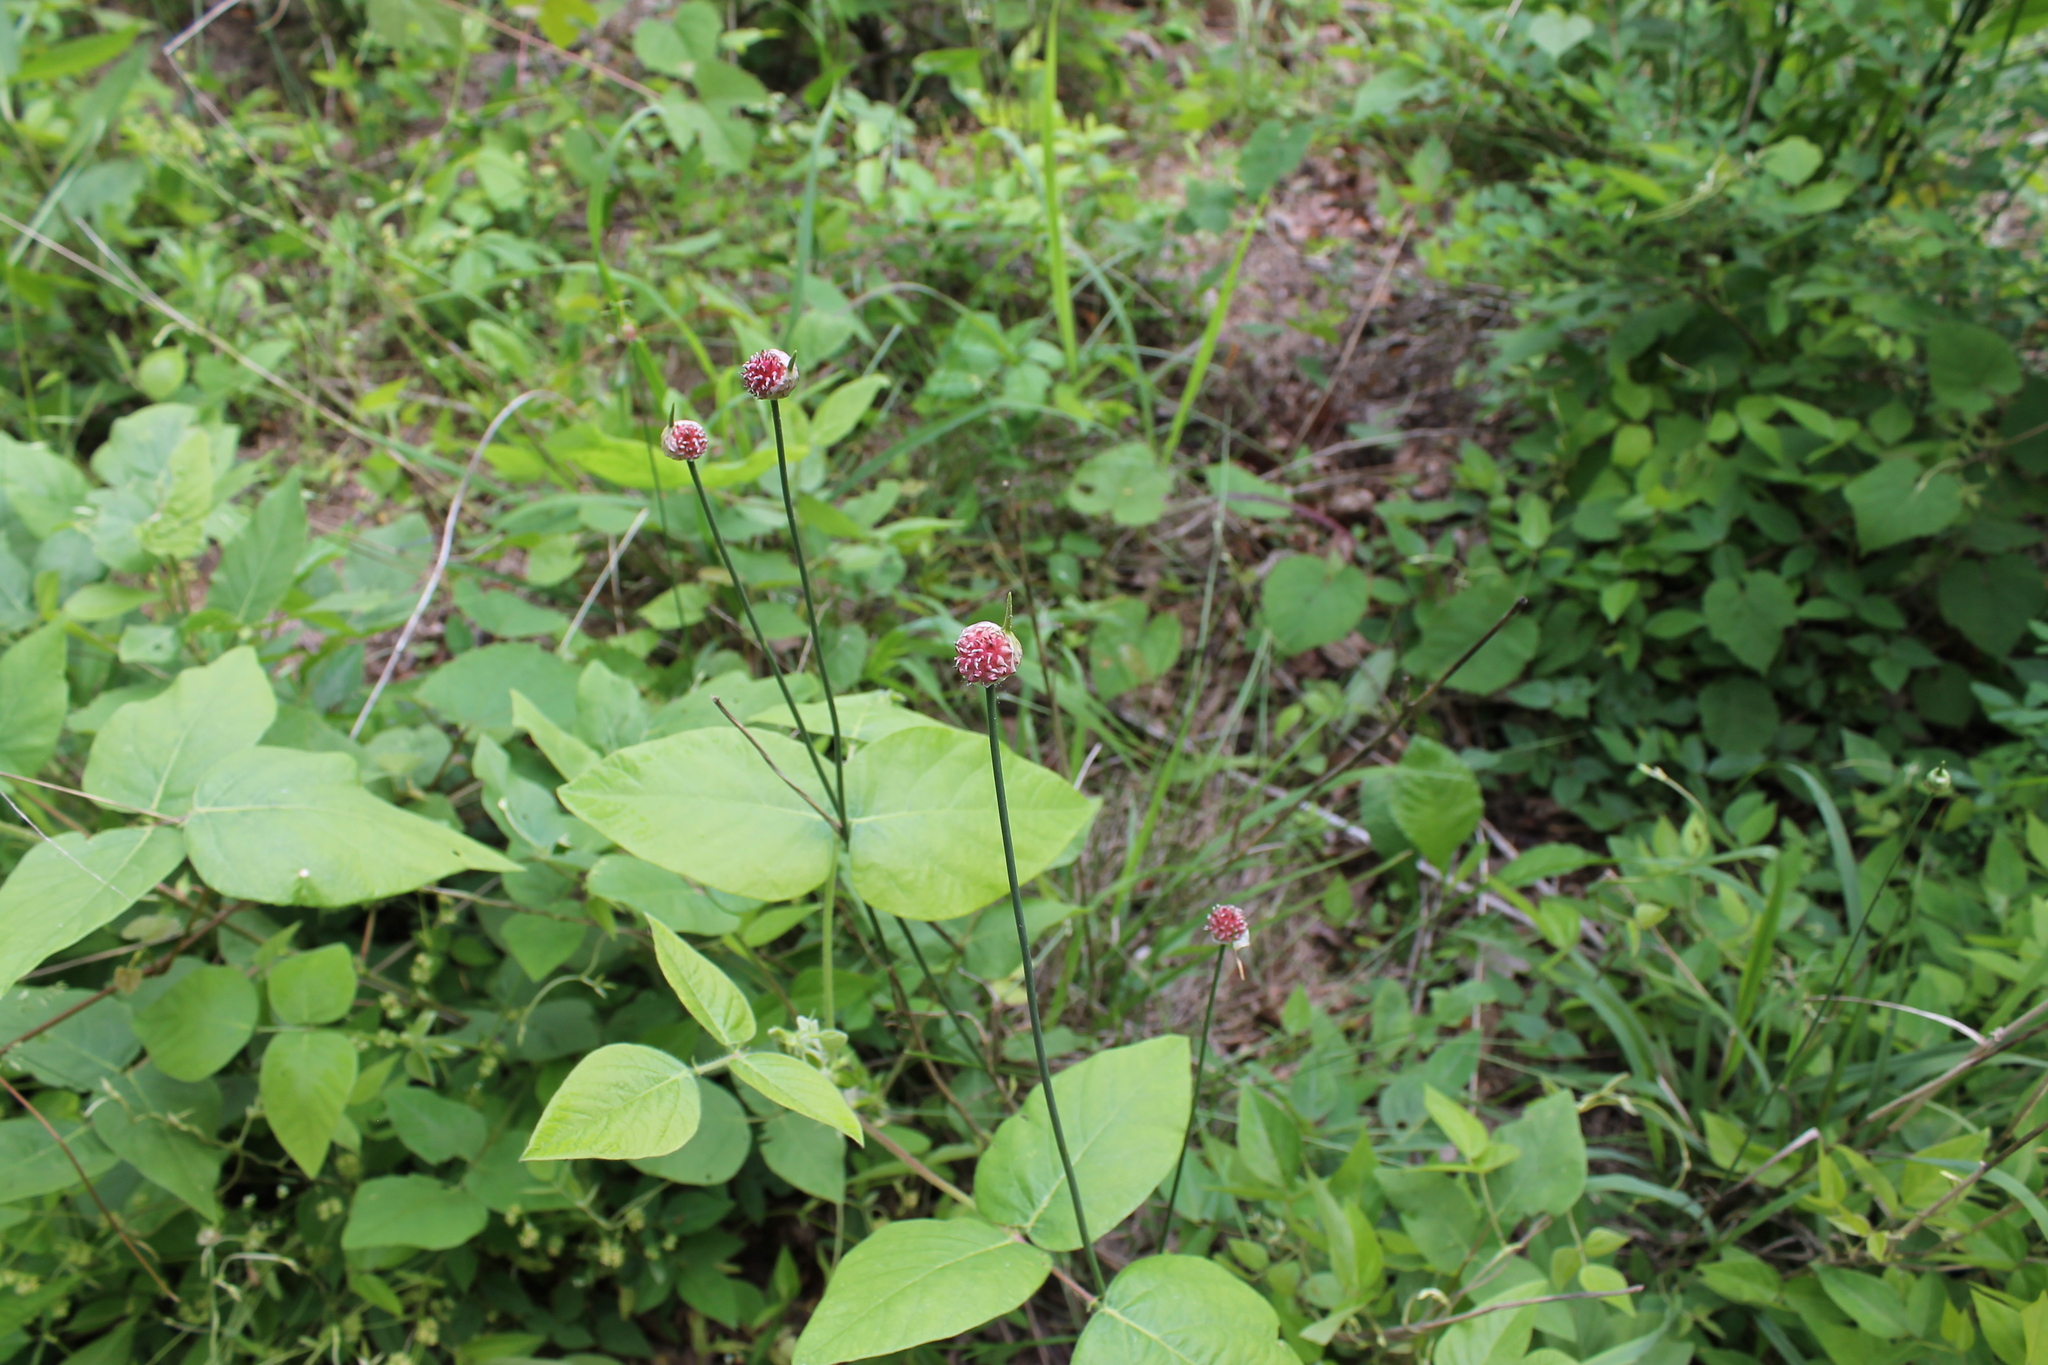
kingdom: Plantae
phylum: Tracheophyta
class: Liliopsida
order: Asparagales
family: Amaryllidaceae
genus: Allium
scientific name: Allium vineale
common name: Crow garlic
